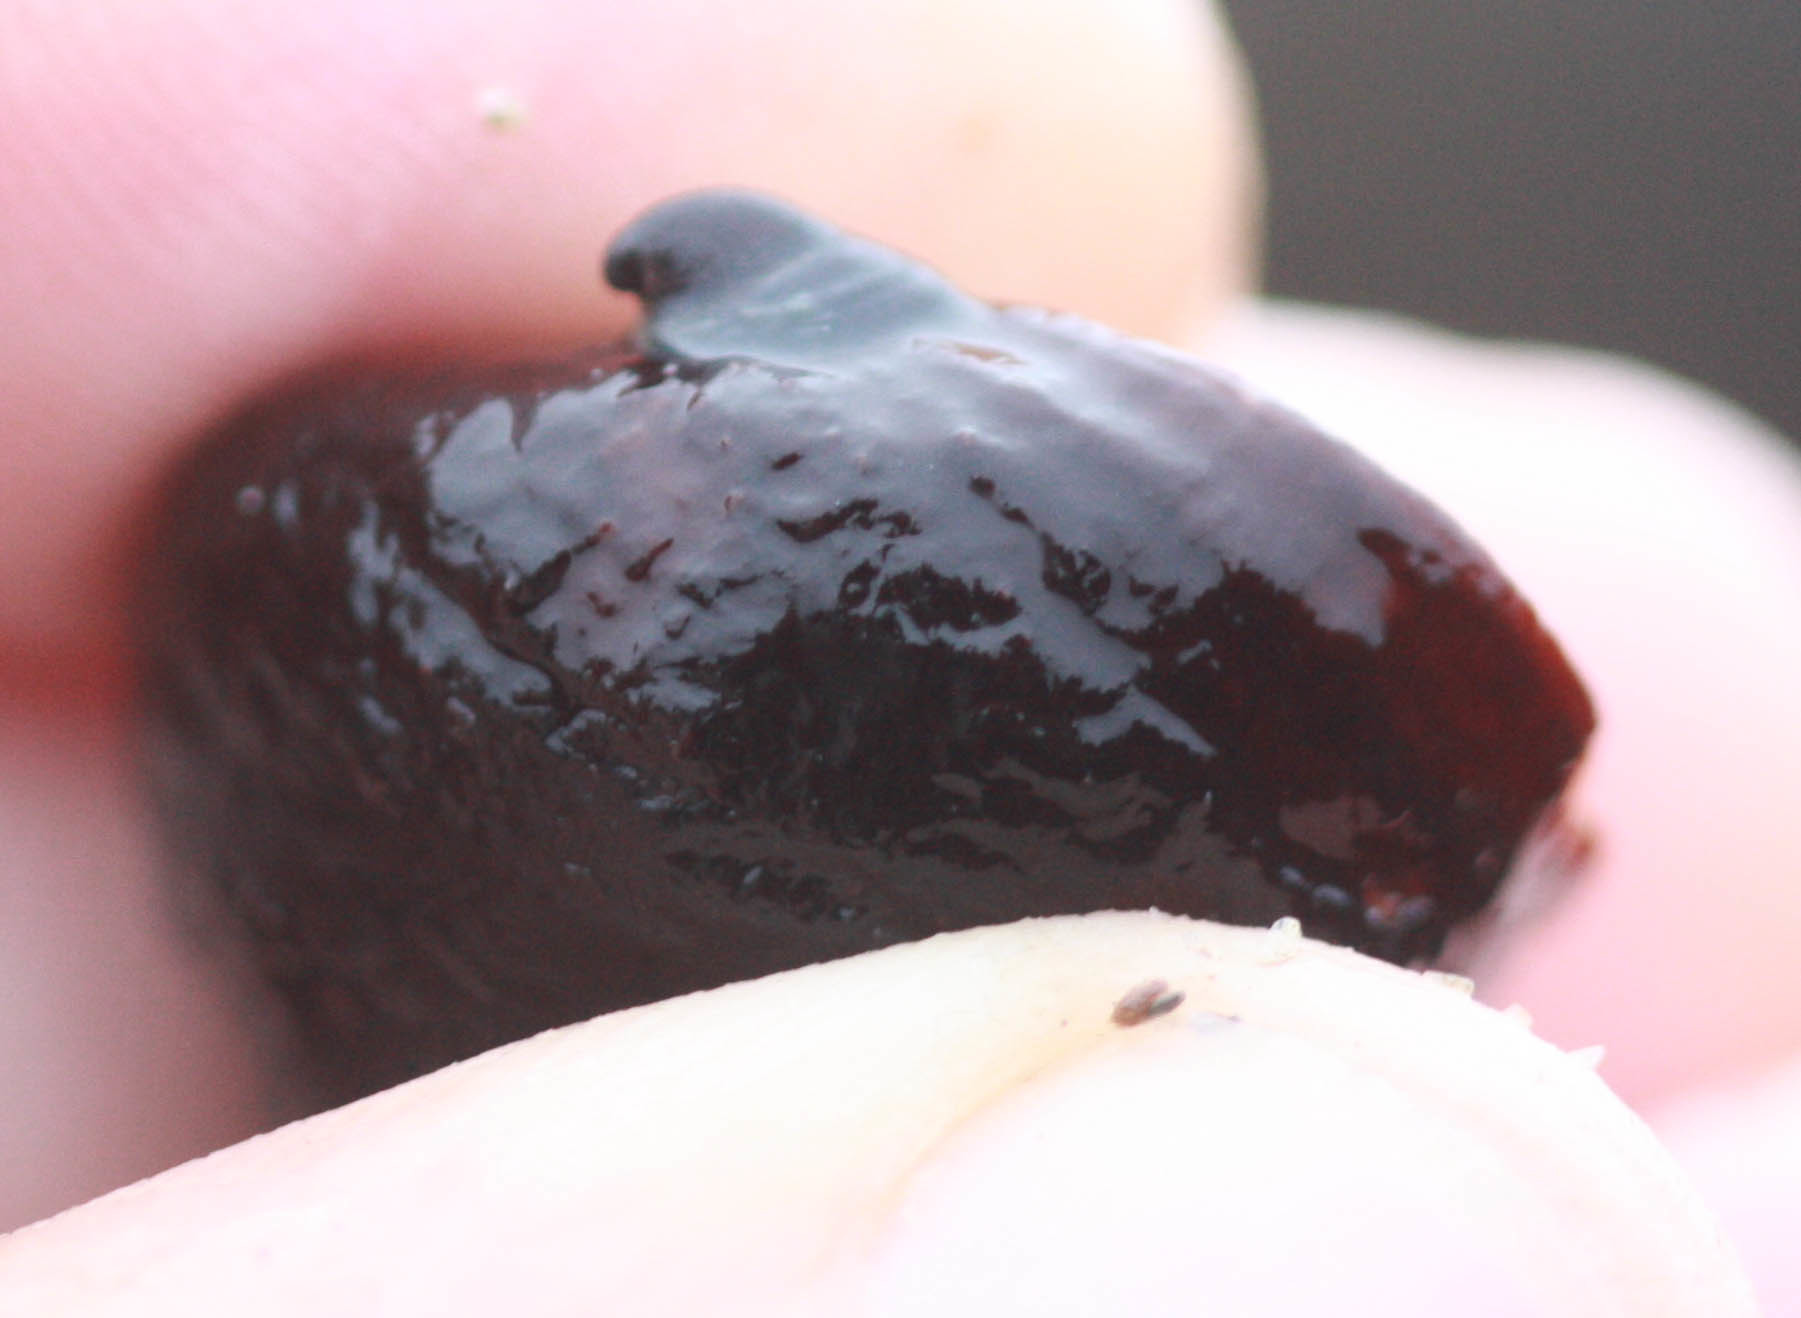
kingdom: Animalia
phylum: Mollusca
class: Gastropoda
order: Littorinimorpha
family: Calyptraeidae
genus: Crepidula
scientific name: Crepidula adunca
